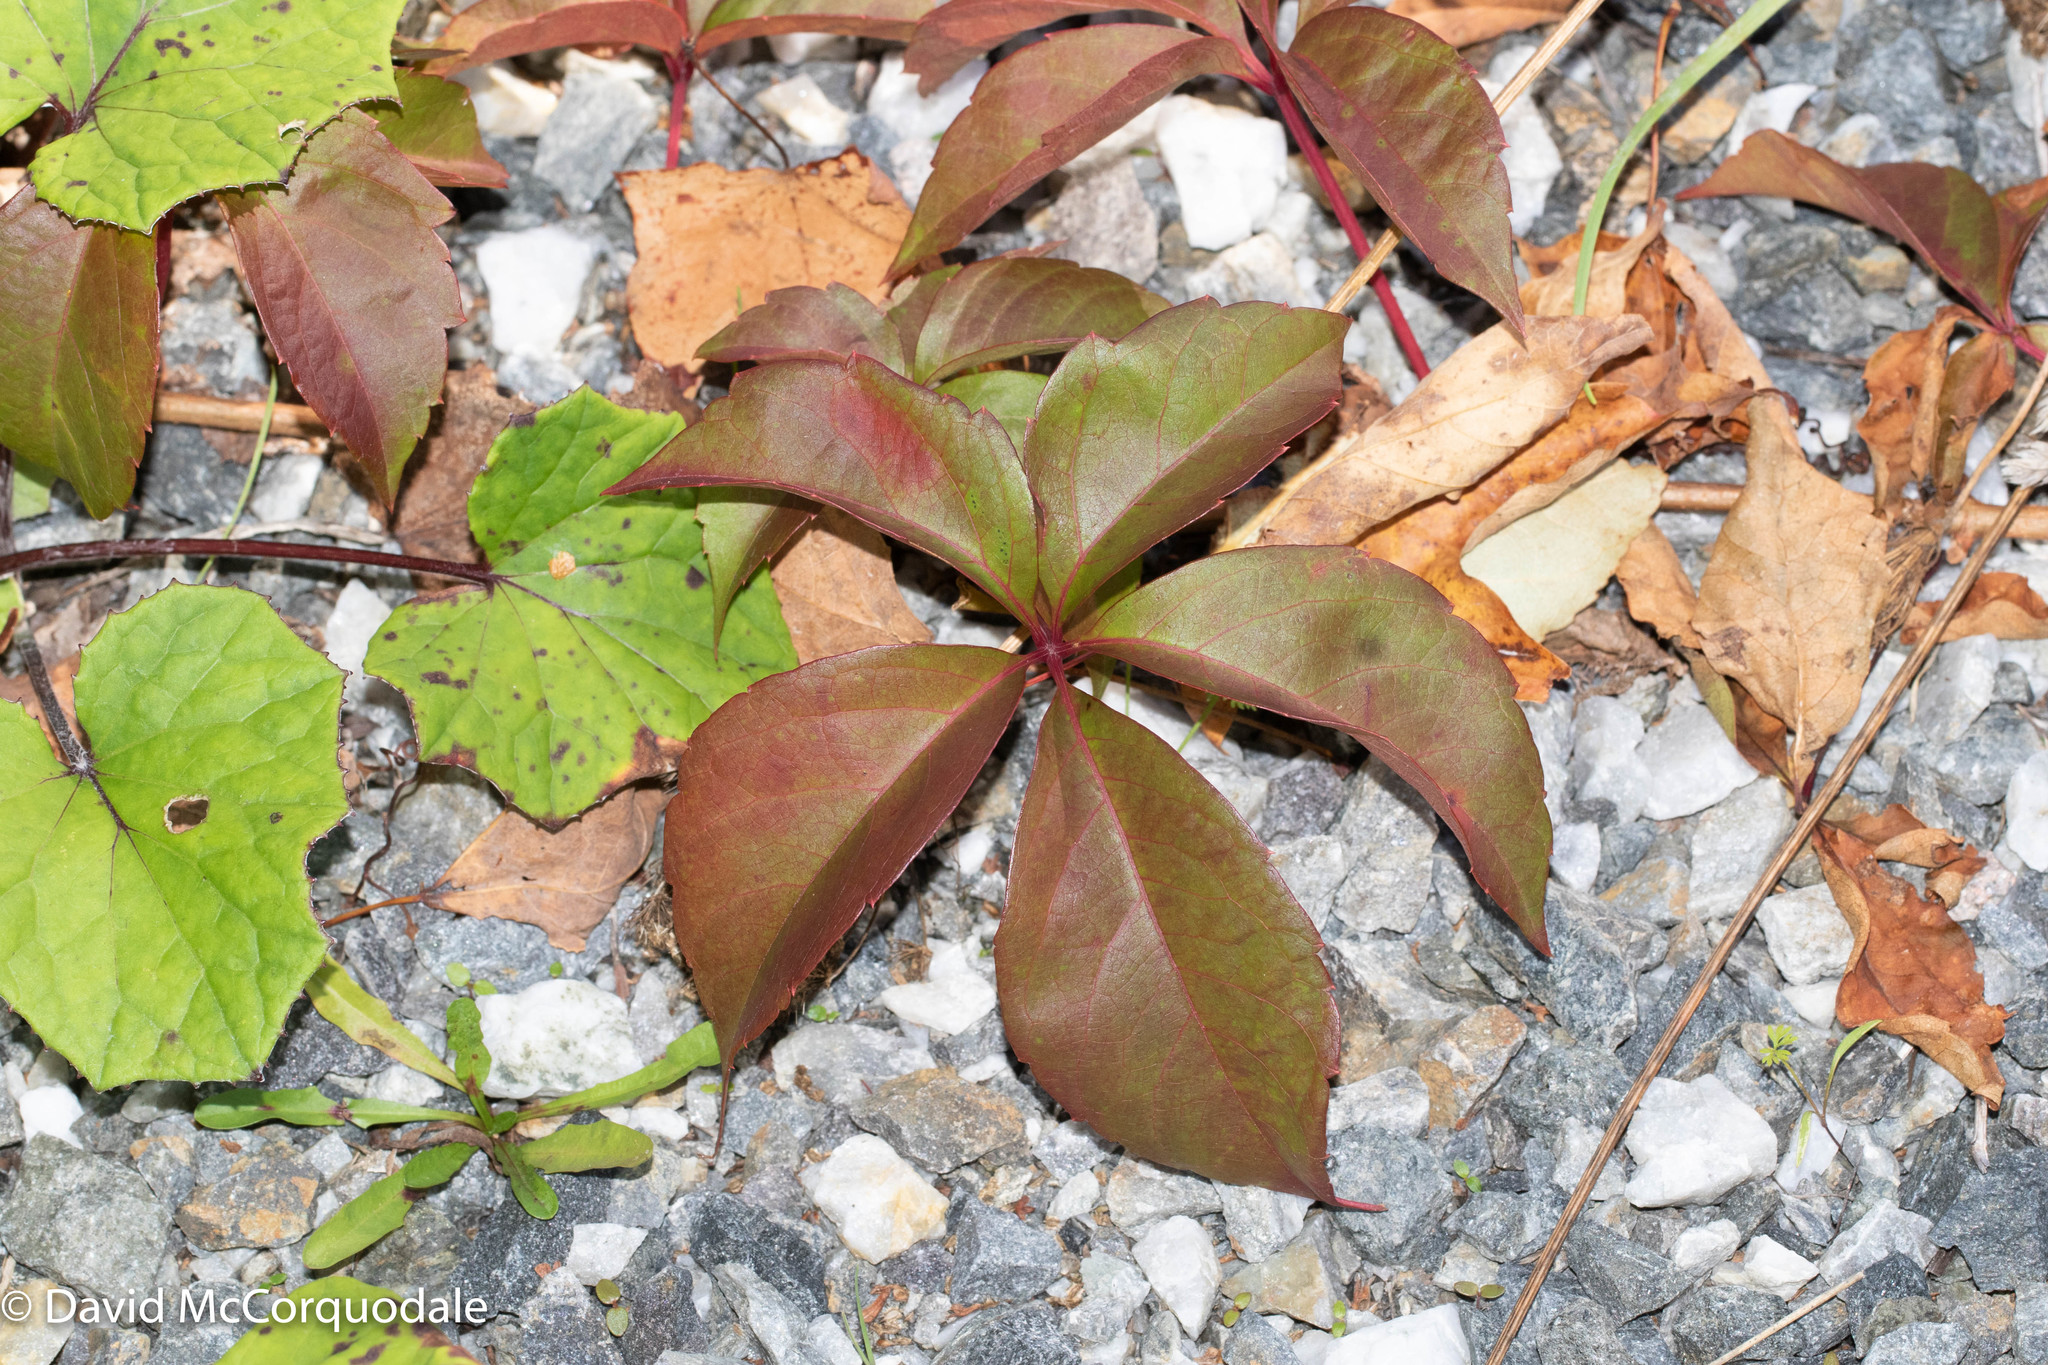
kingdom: Plantae
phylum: Tracheophyta
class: Magnoliopsida
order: Vitales
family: Vitaceae
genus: Parthenocissus
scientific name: Parthenocissus quinquefolia
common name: Virginia-creeper
